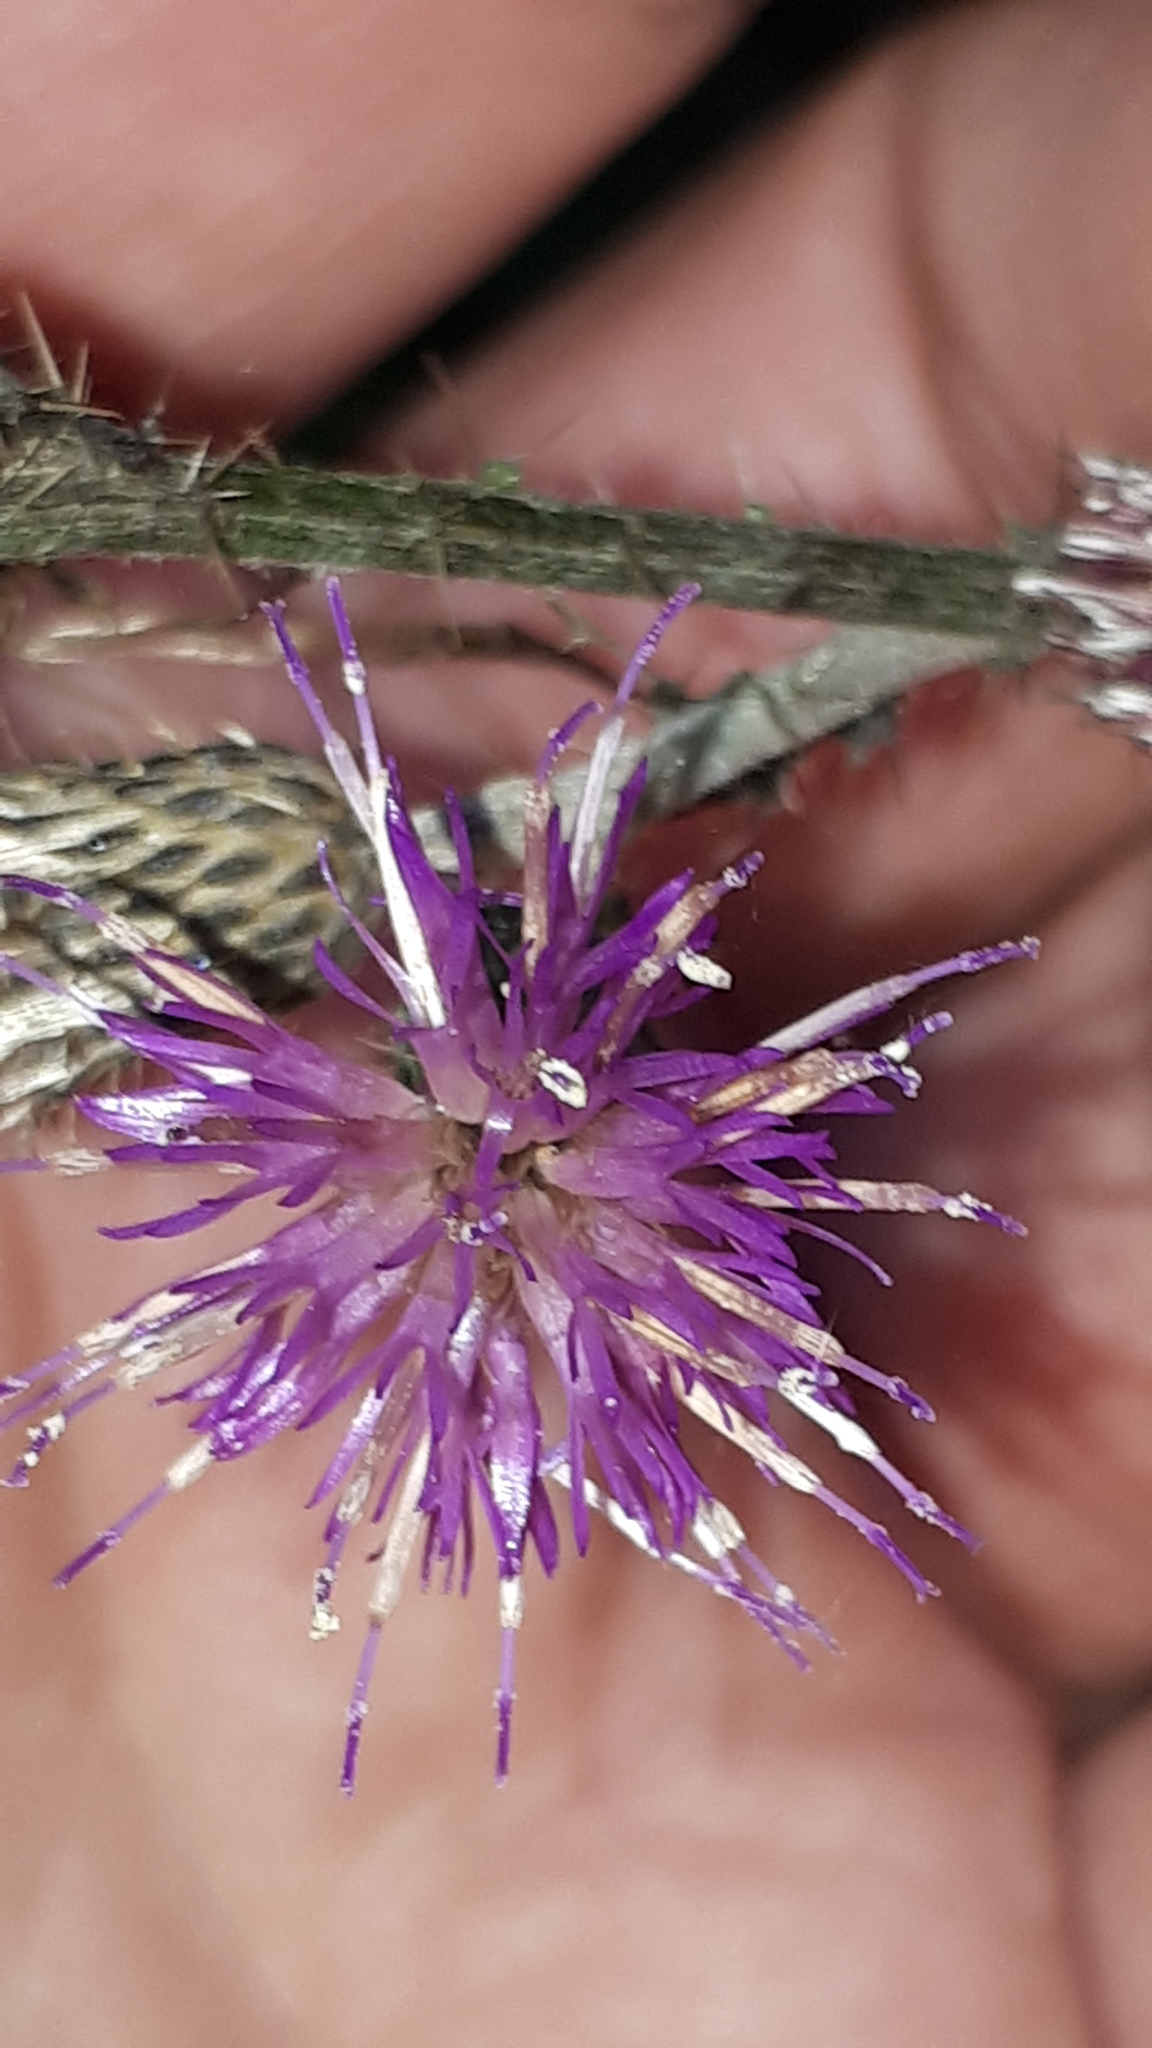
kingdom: Plantae
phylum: Tracheophyta
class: Magnoliopsida
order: Asterales
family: Asteraceae
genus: Cirsium
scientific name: Cirsium palustre
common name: Marsh thistle
